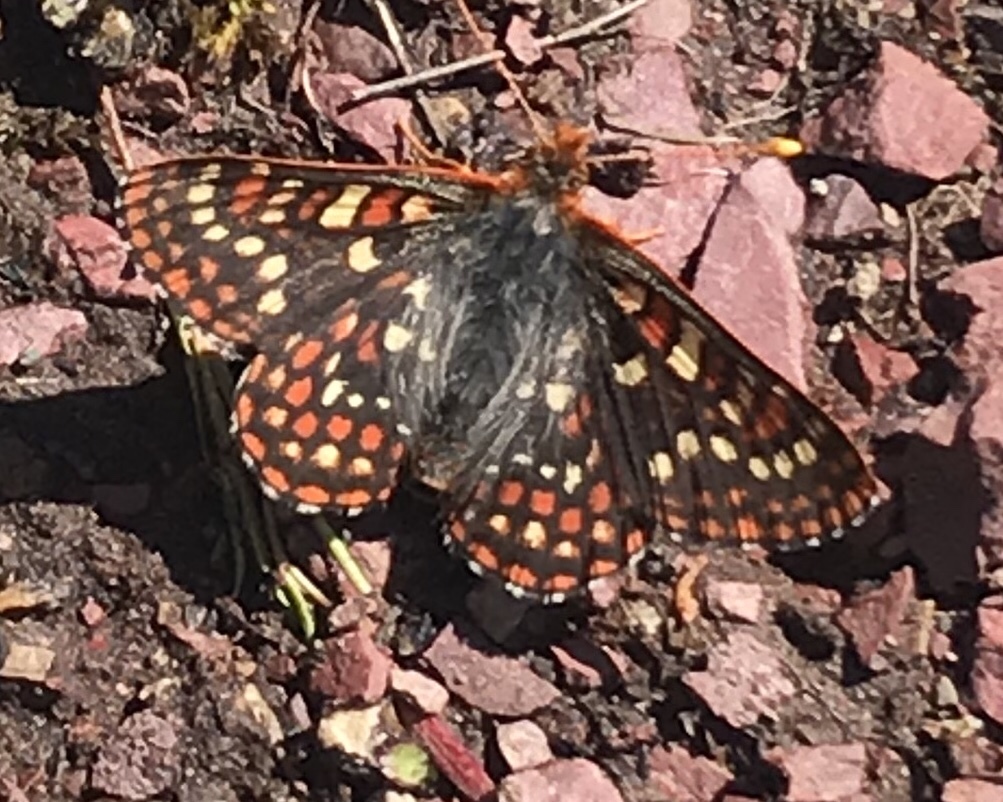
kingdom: Animalia
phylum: Arthropoda
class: Insecta
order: Lepidoptera
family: Nymphalidae
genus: Occidryas
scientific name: Occidryas anicia
